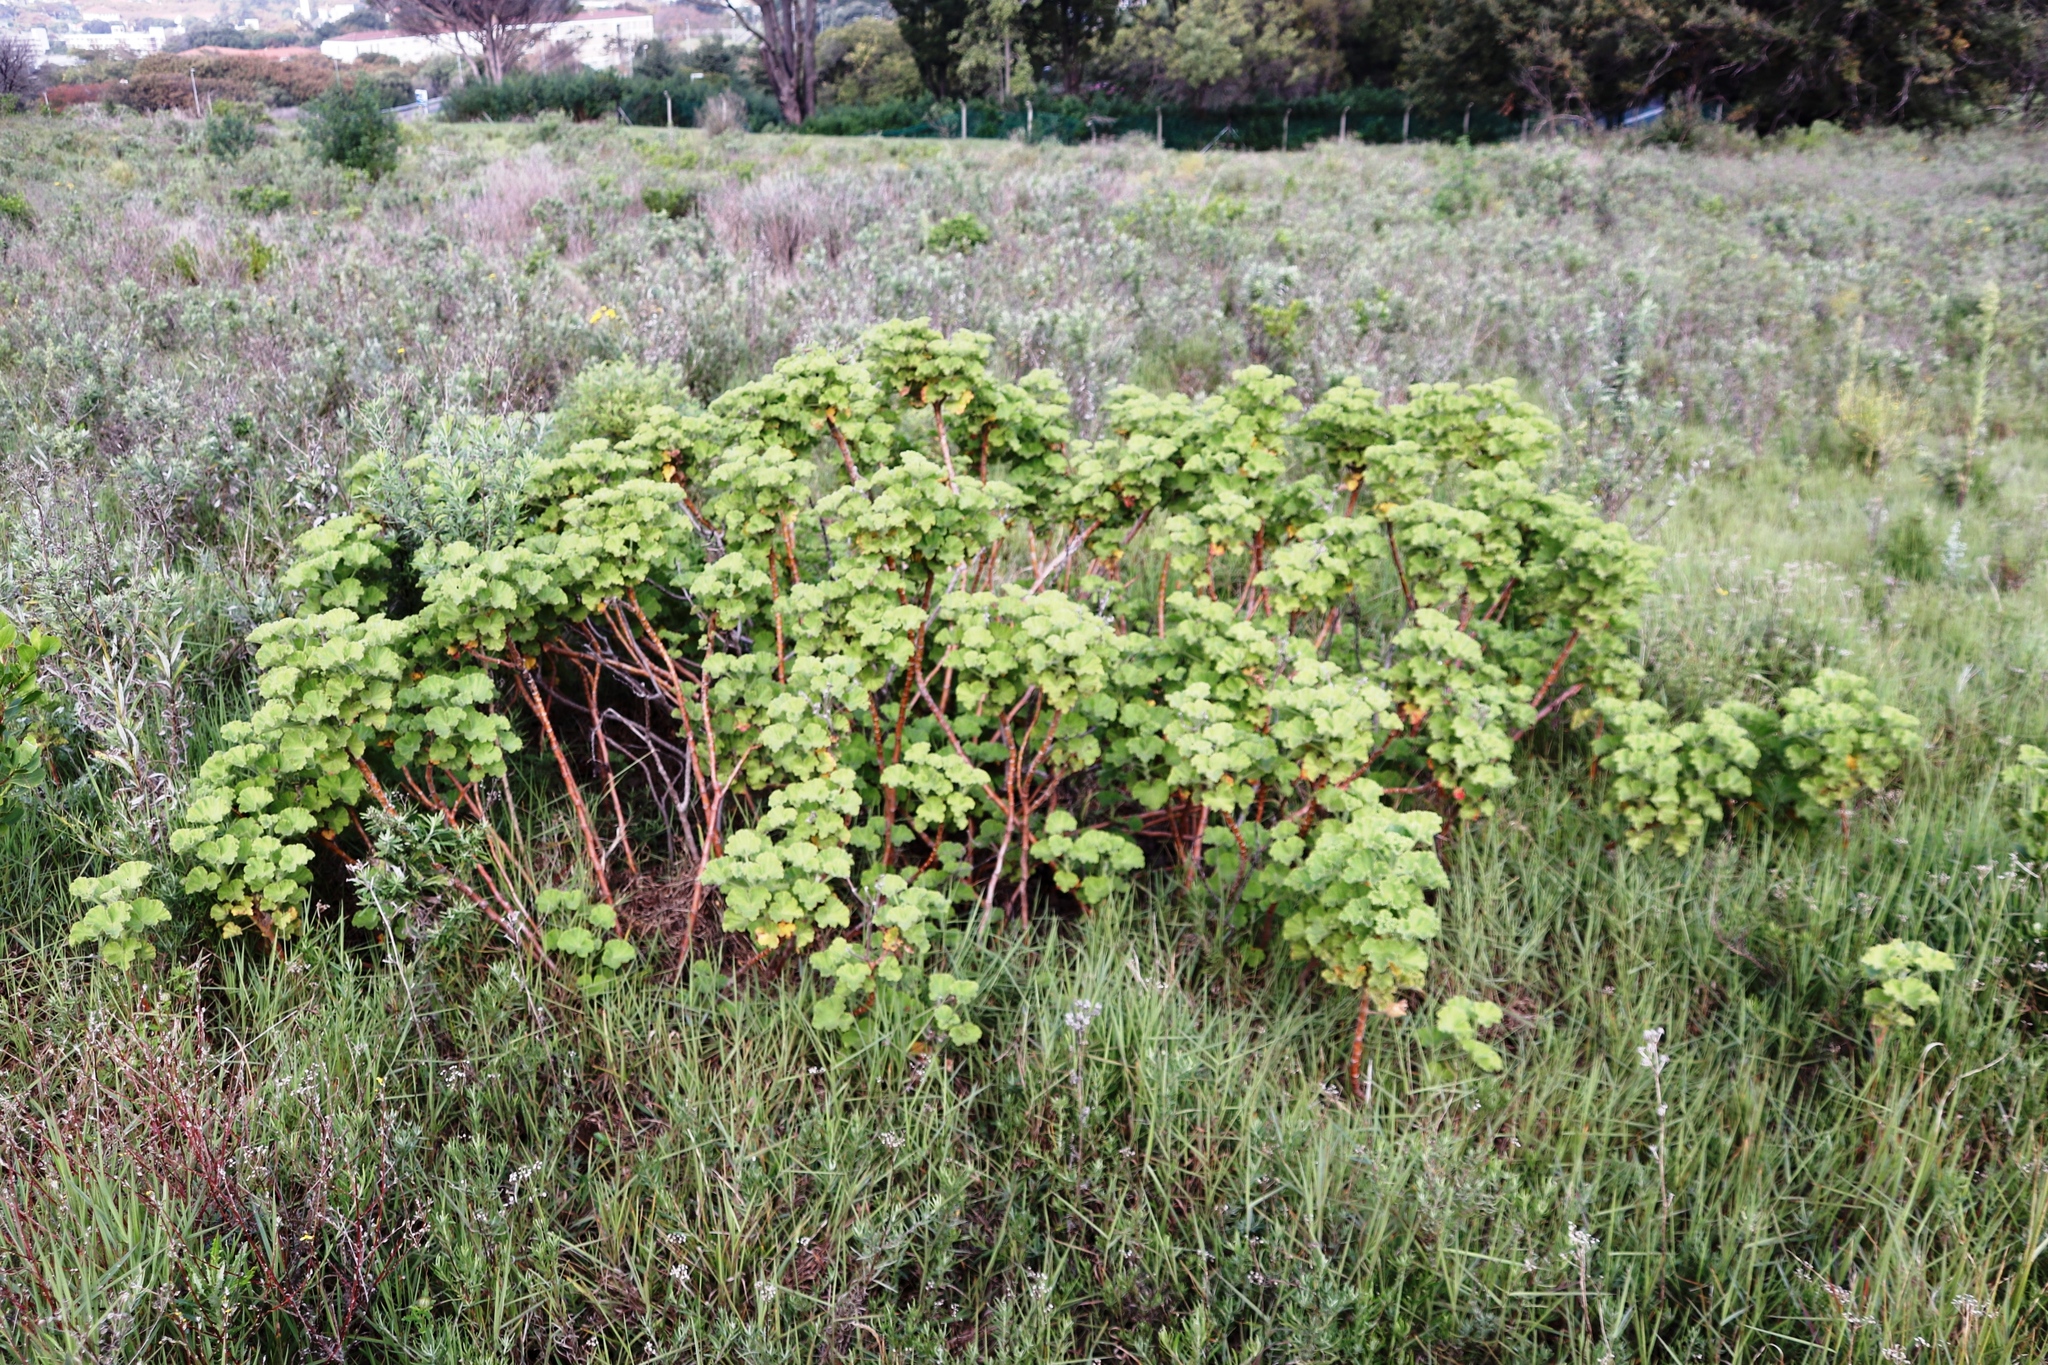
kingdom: Plantae
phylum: Tracheophyta
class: Magnoliopsida
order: Geraniales
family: Geraniaceae
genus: Pelargonium
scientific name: Pelargonium cucullatum
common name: Tree pelargonium
